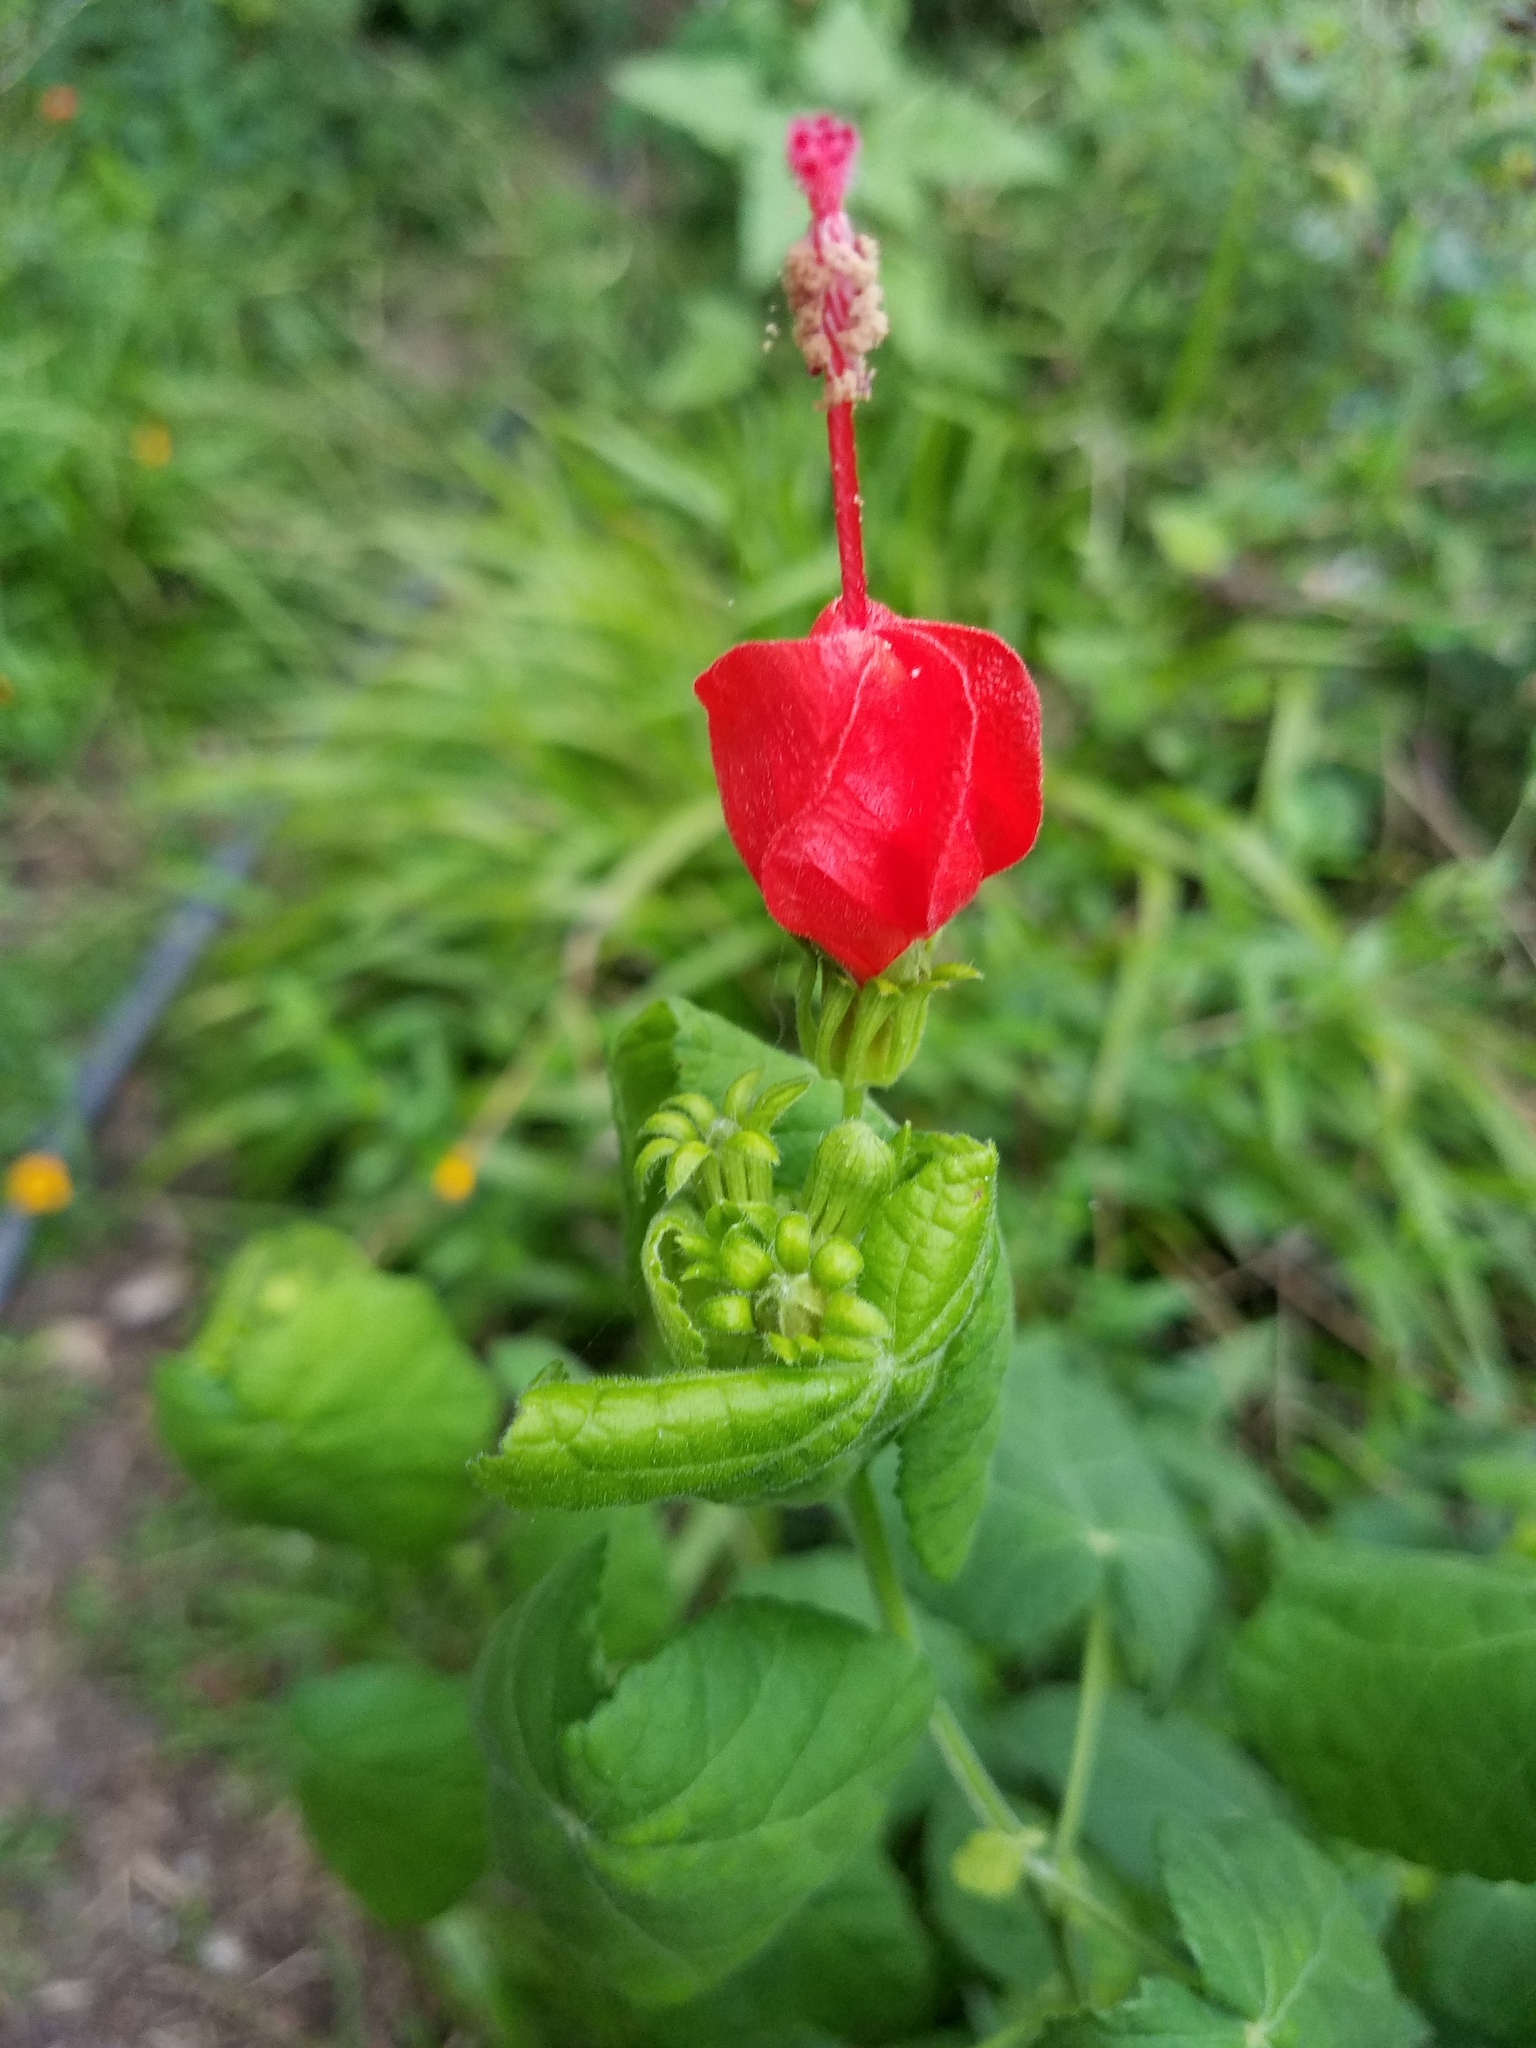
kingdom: Plantae
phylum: Tracheophyta
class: Magnoliopsida
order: Malvales
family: Malvaceae
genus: Malvaviscus
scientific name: Malvaviscus arboreus
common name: Wax mallow
